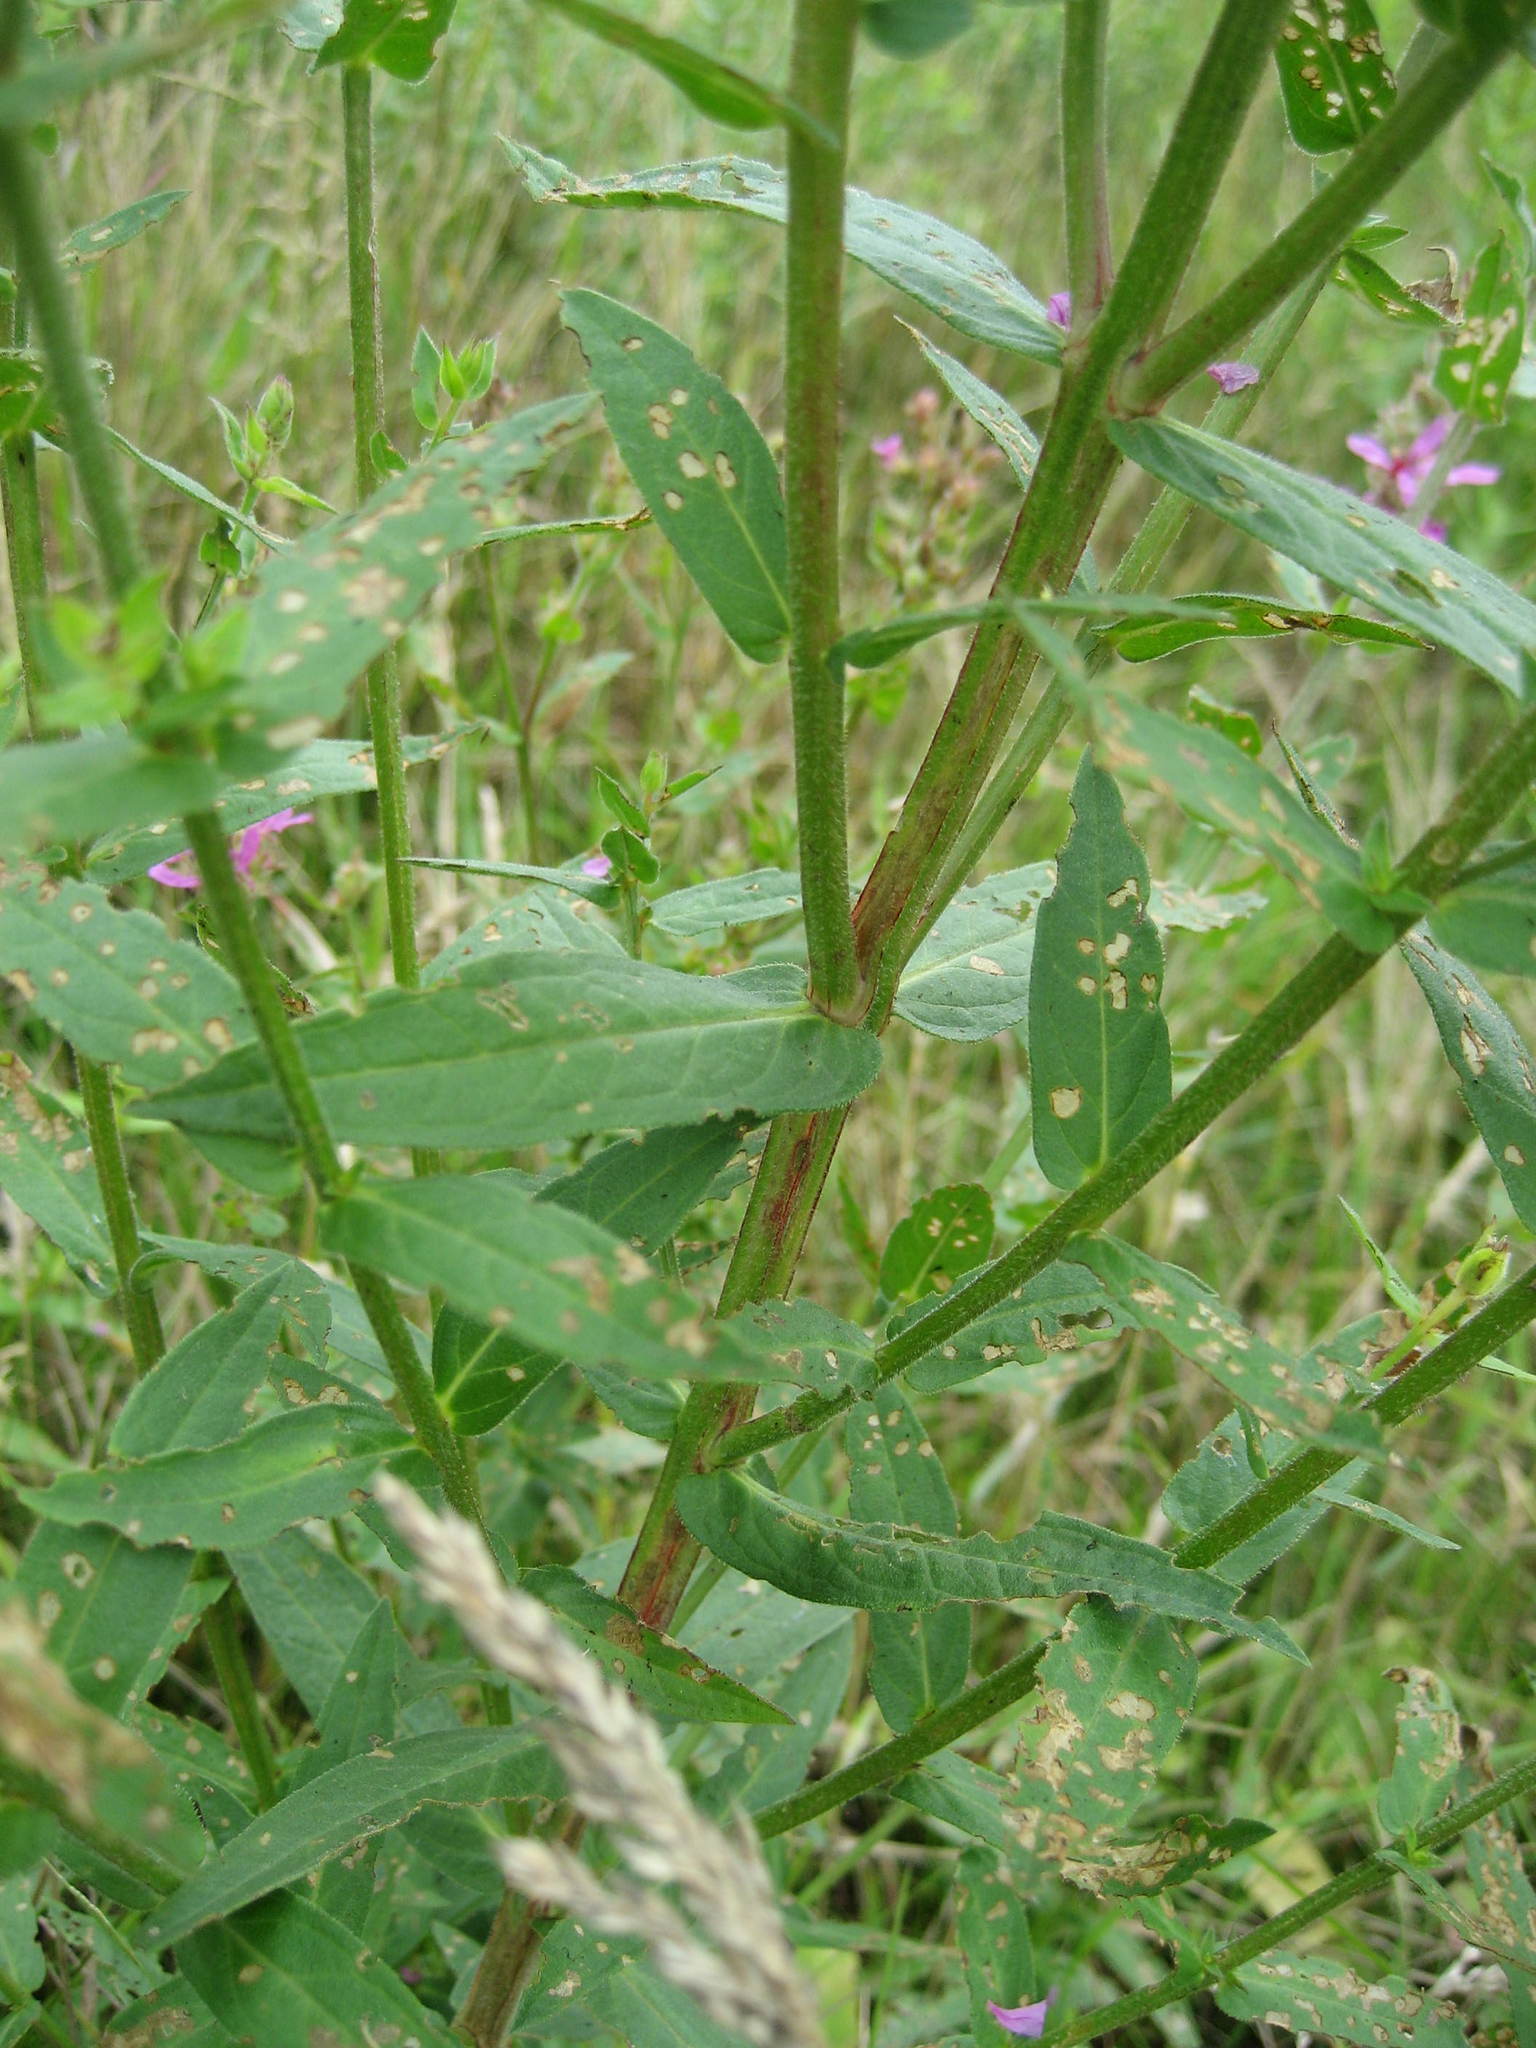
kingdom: Plantae
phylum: Tracheophyta
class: Magnoliopsida
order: Myrtales
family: Lythraceae
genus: Lythrum
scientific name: Lythrum salicaria
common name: Purple loosestrife
